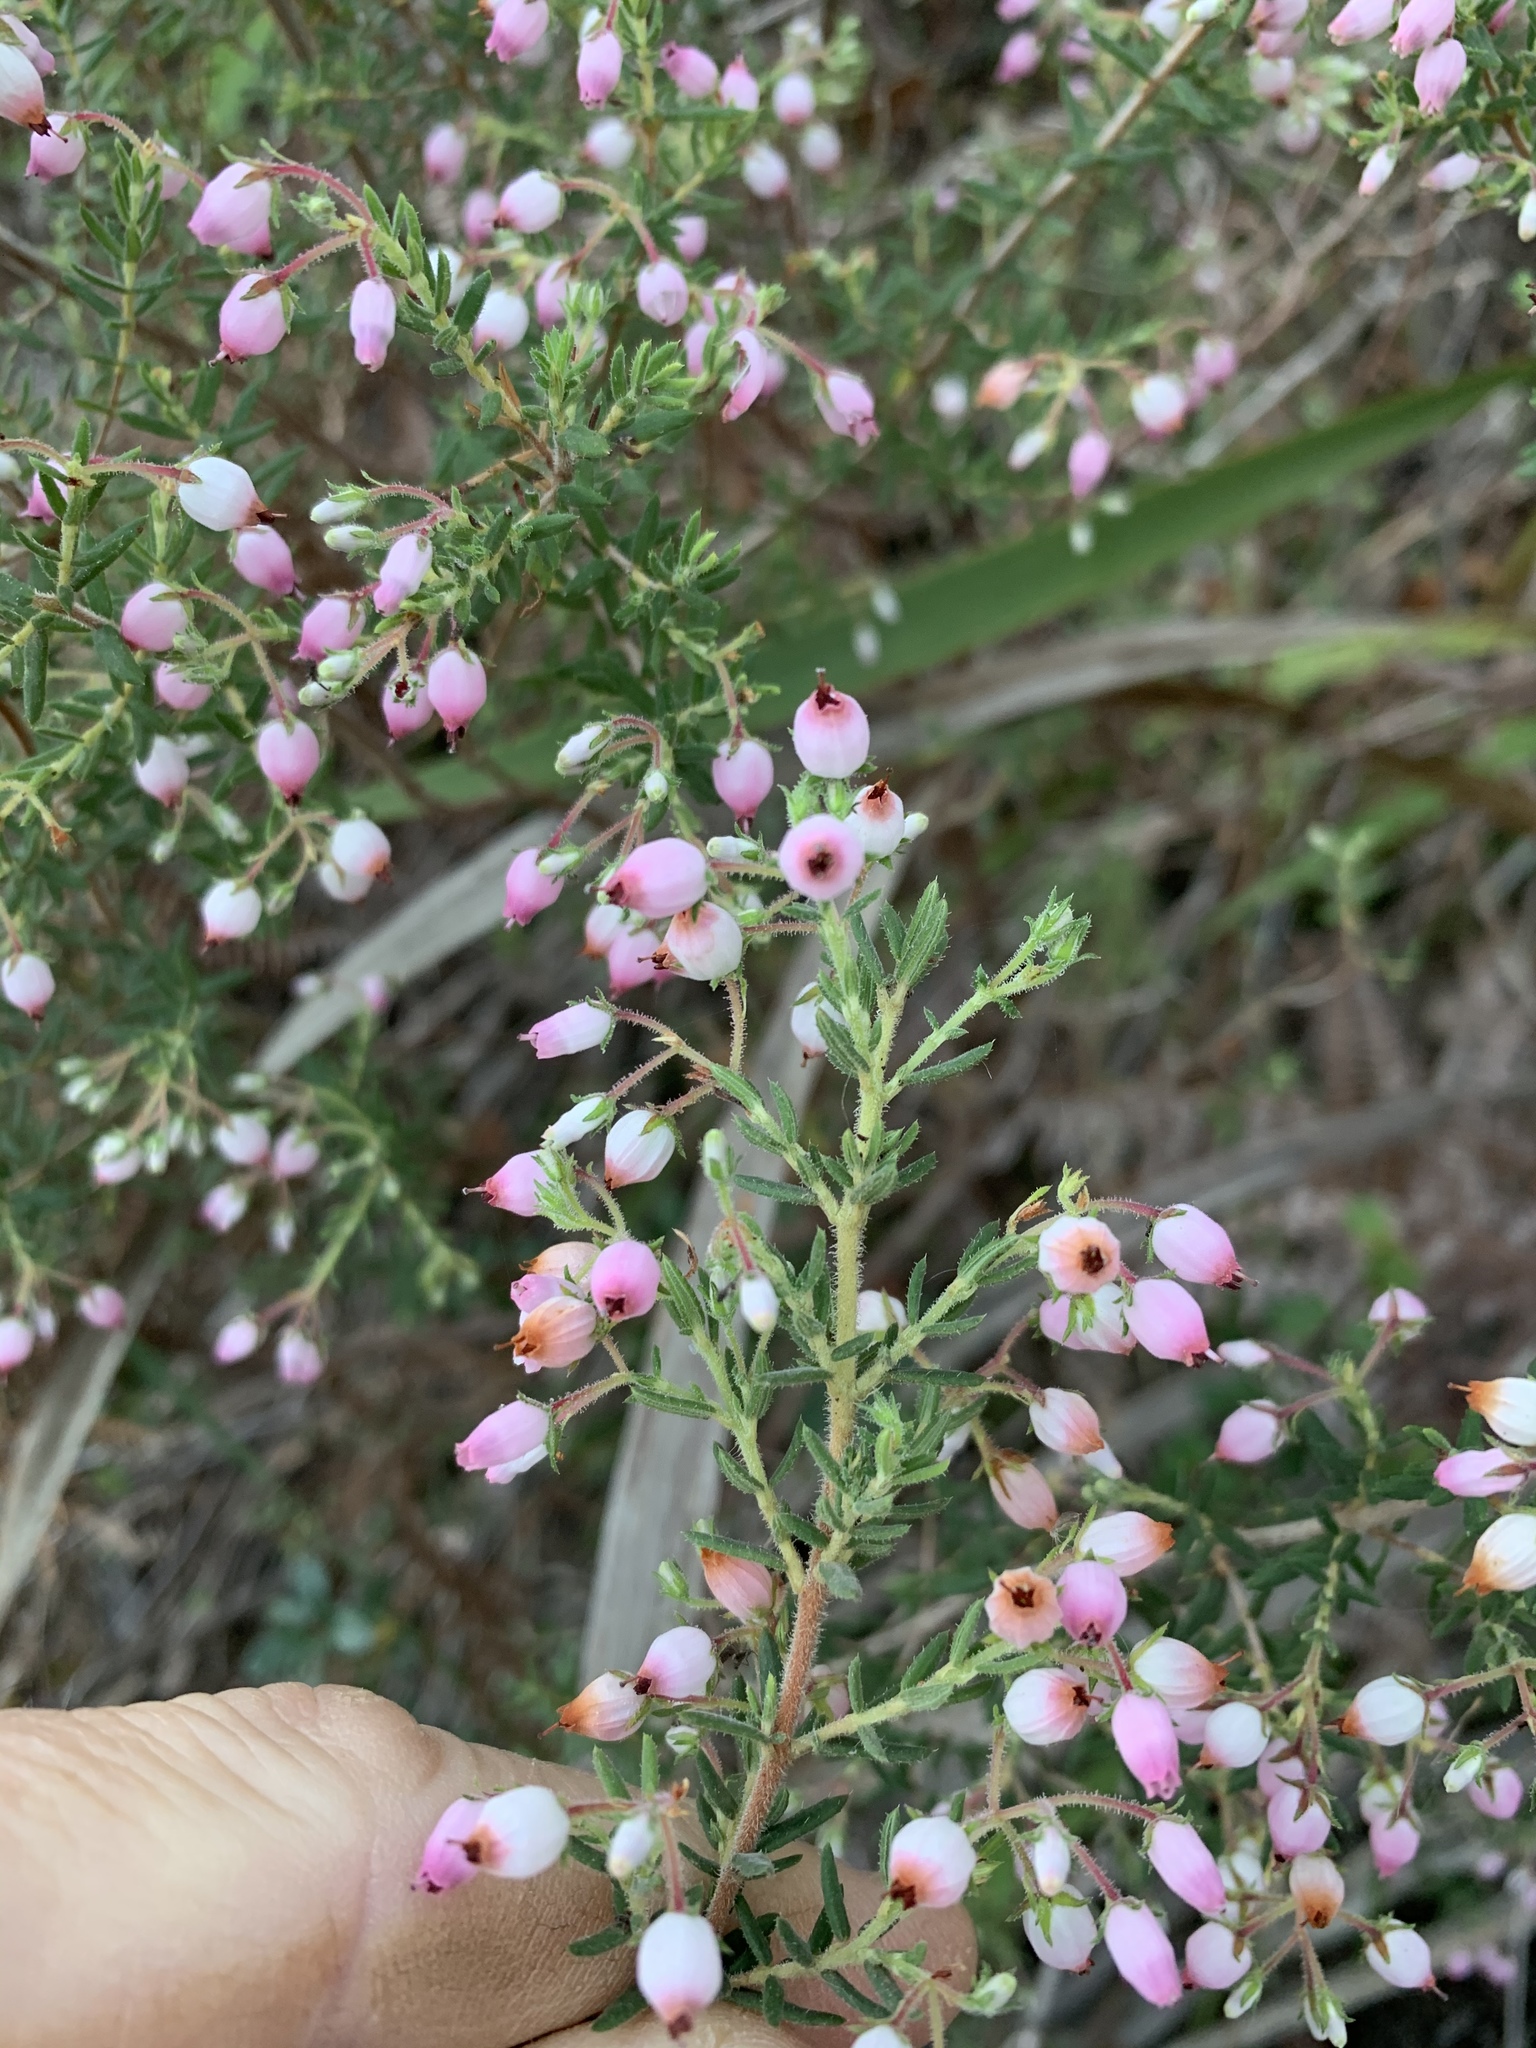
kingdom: Plantae
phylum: Tracheophyta
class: Magnoliopsida
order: Ericales
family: Ericaceae
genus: Erica
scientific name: Erica hirta
